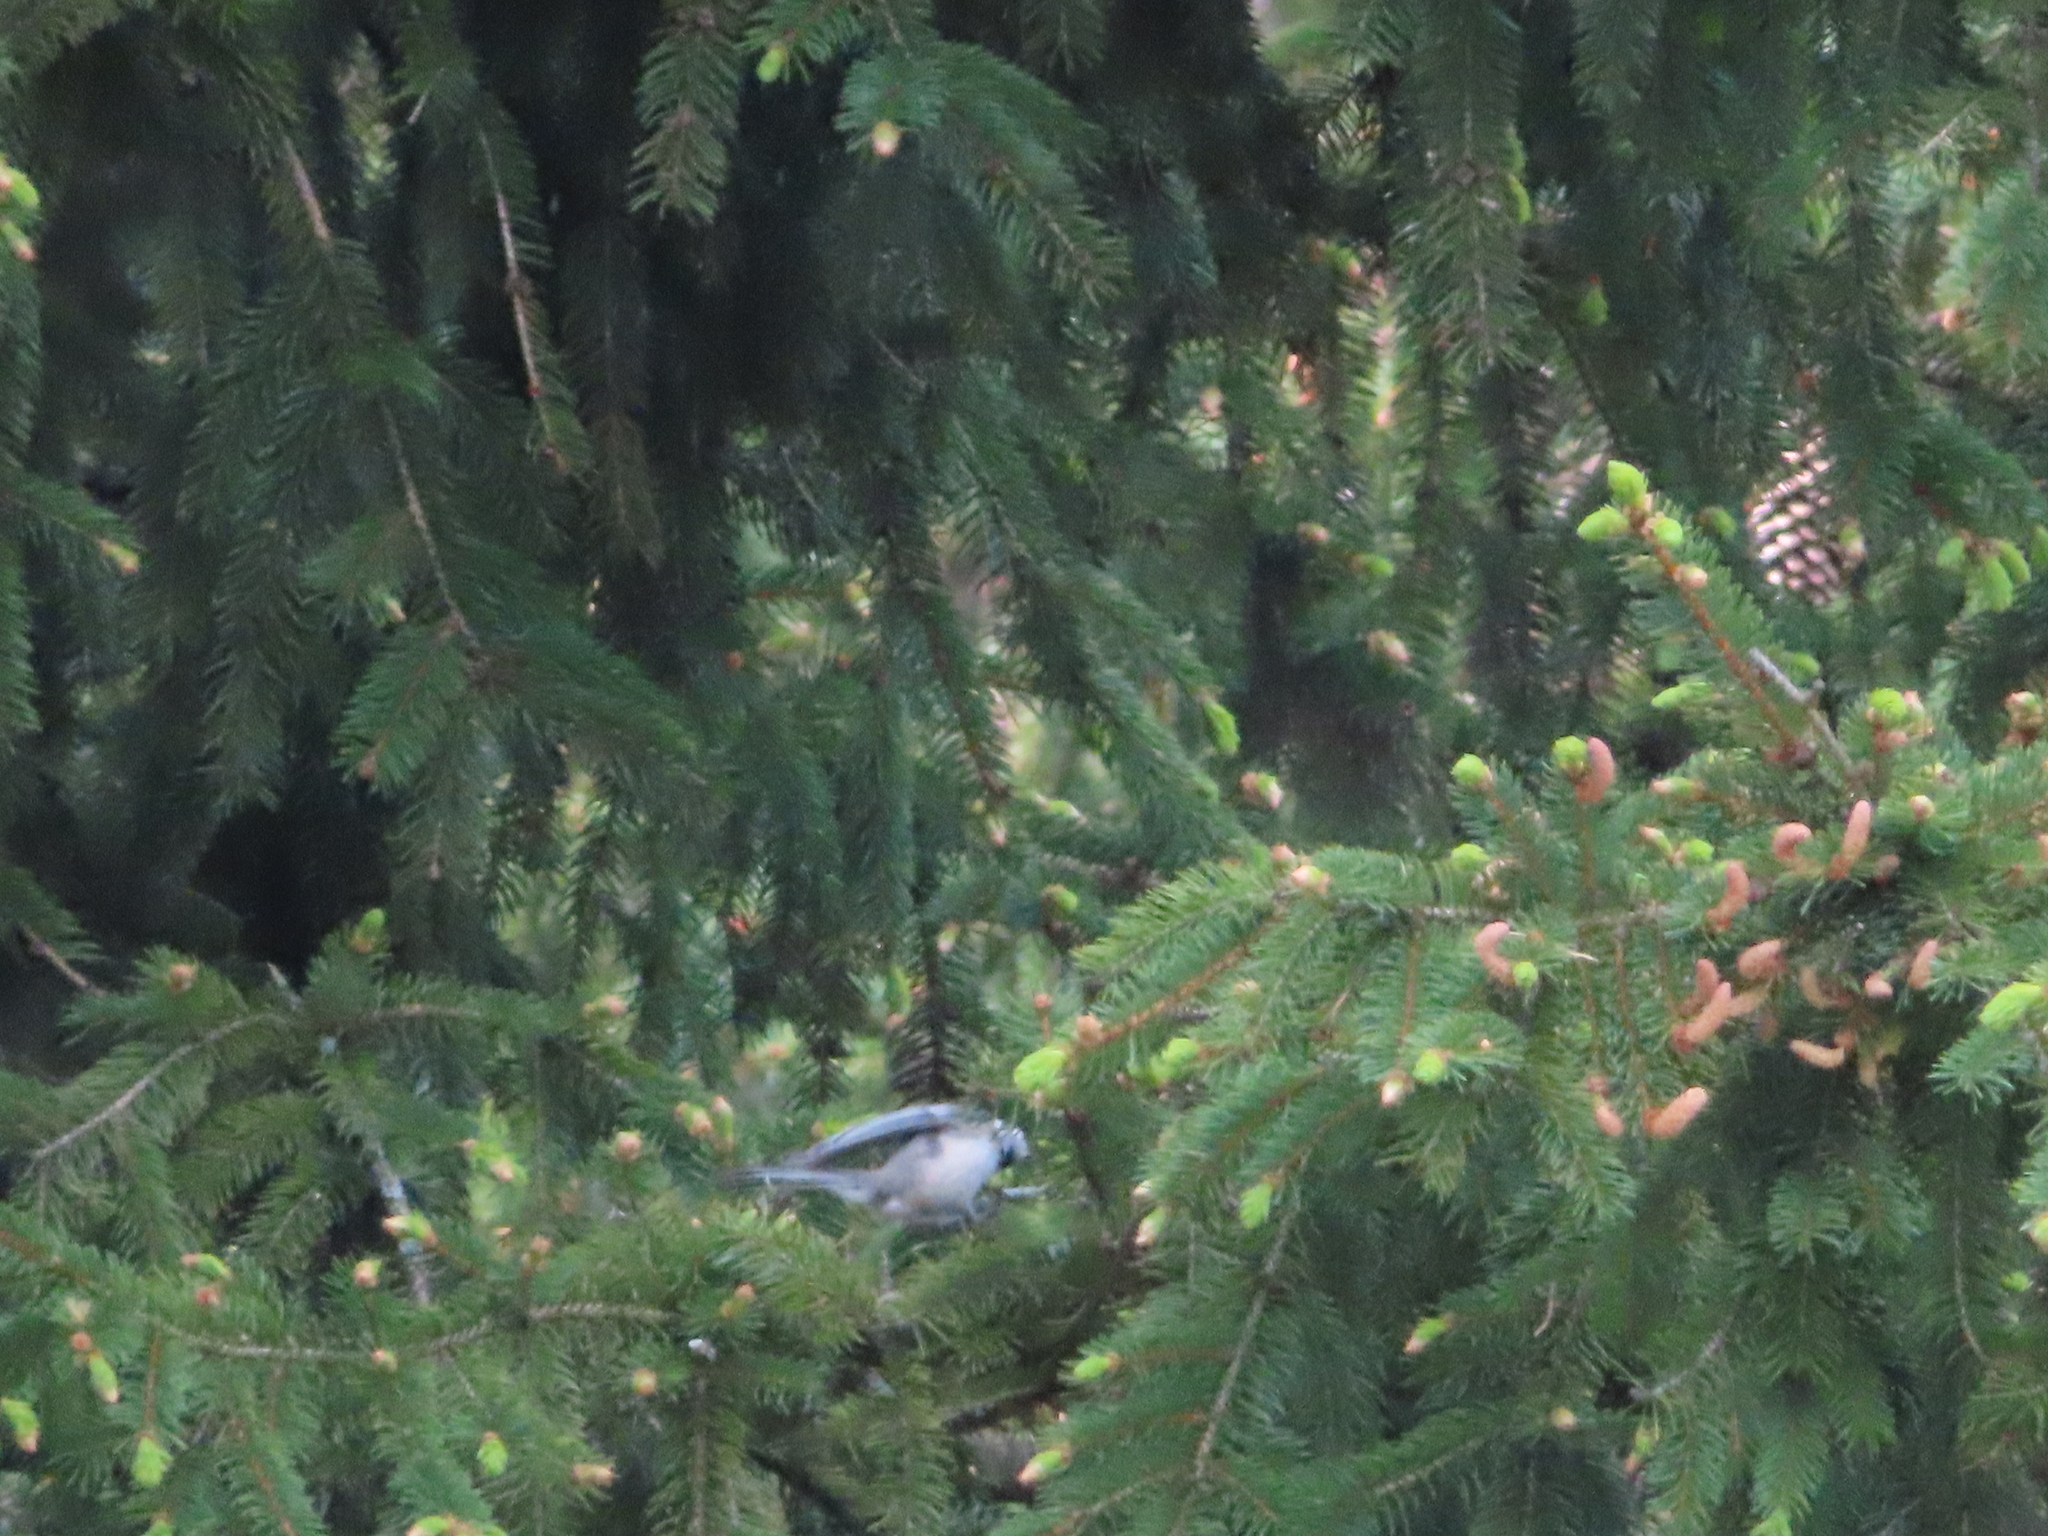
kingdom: Animalia
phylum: Chordata
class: Aves
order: Passeriformes
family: Paridae
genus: Poecile
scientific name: Poecile atricapillus
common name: Black-capped chickadee
